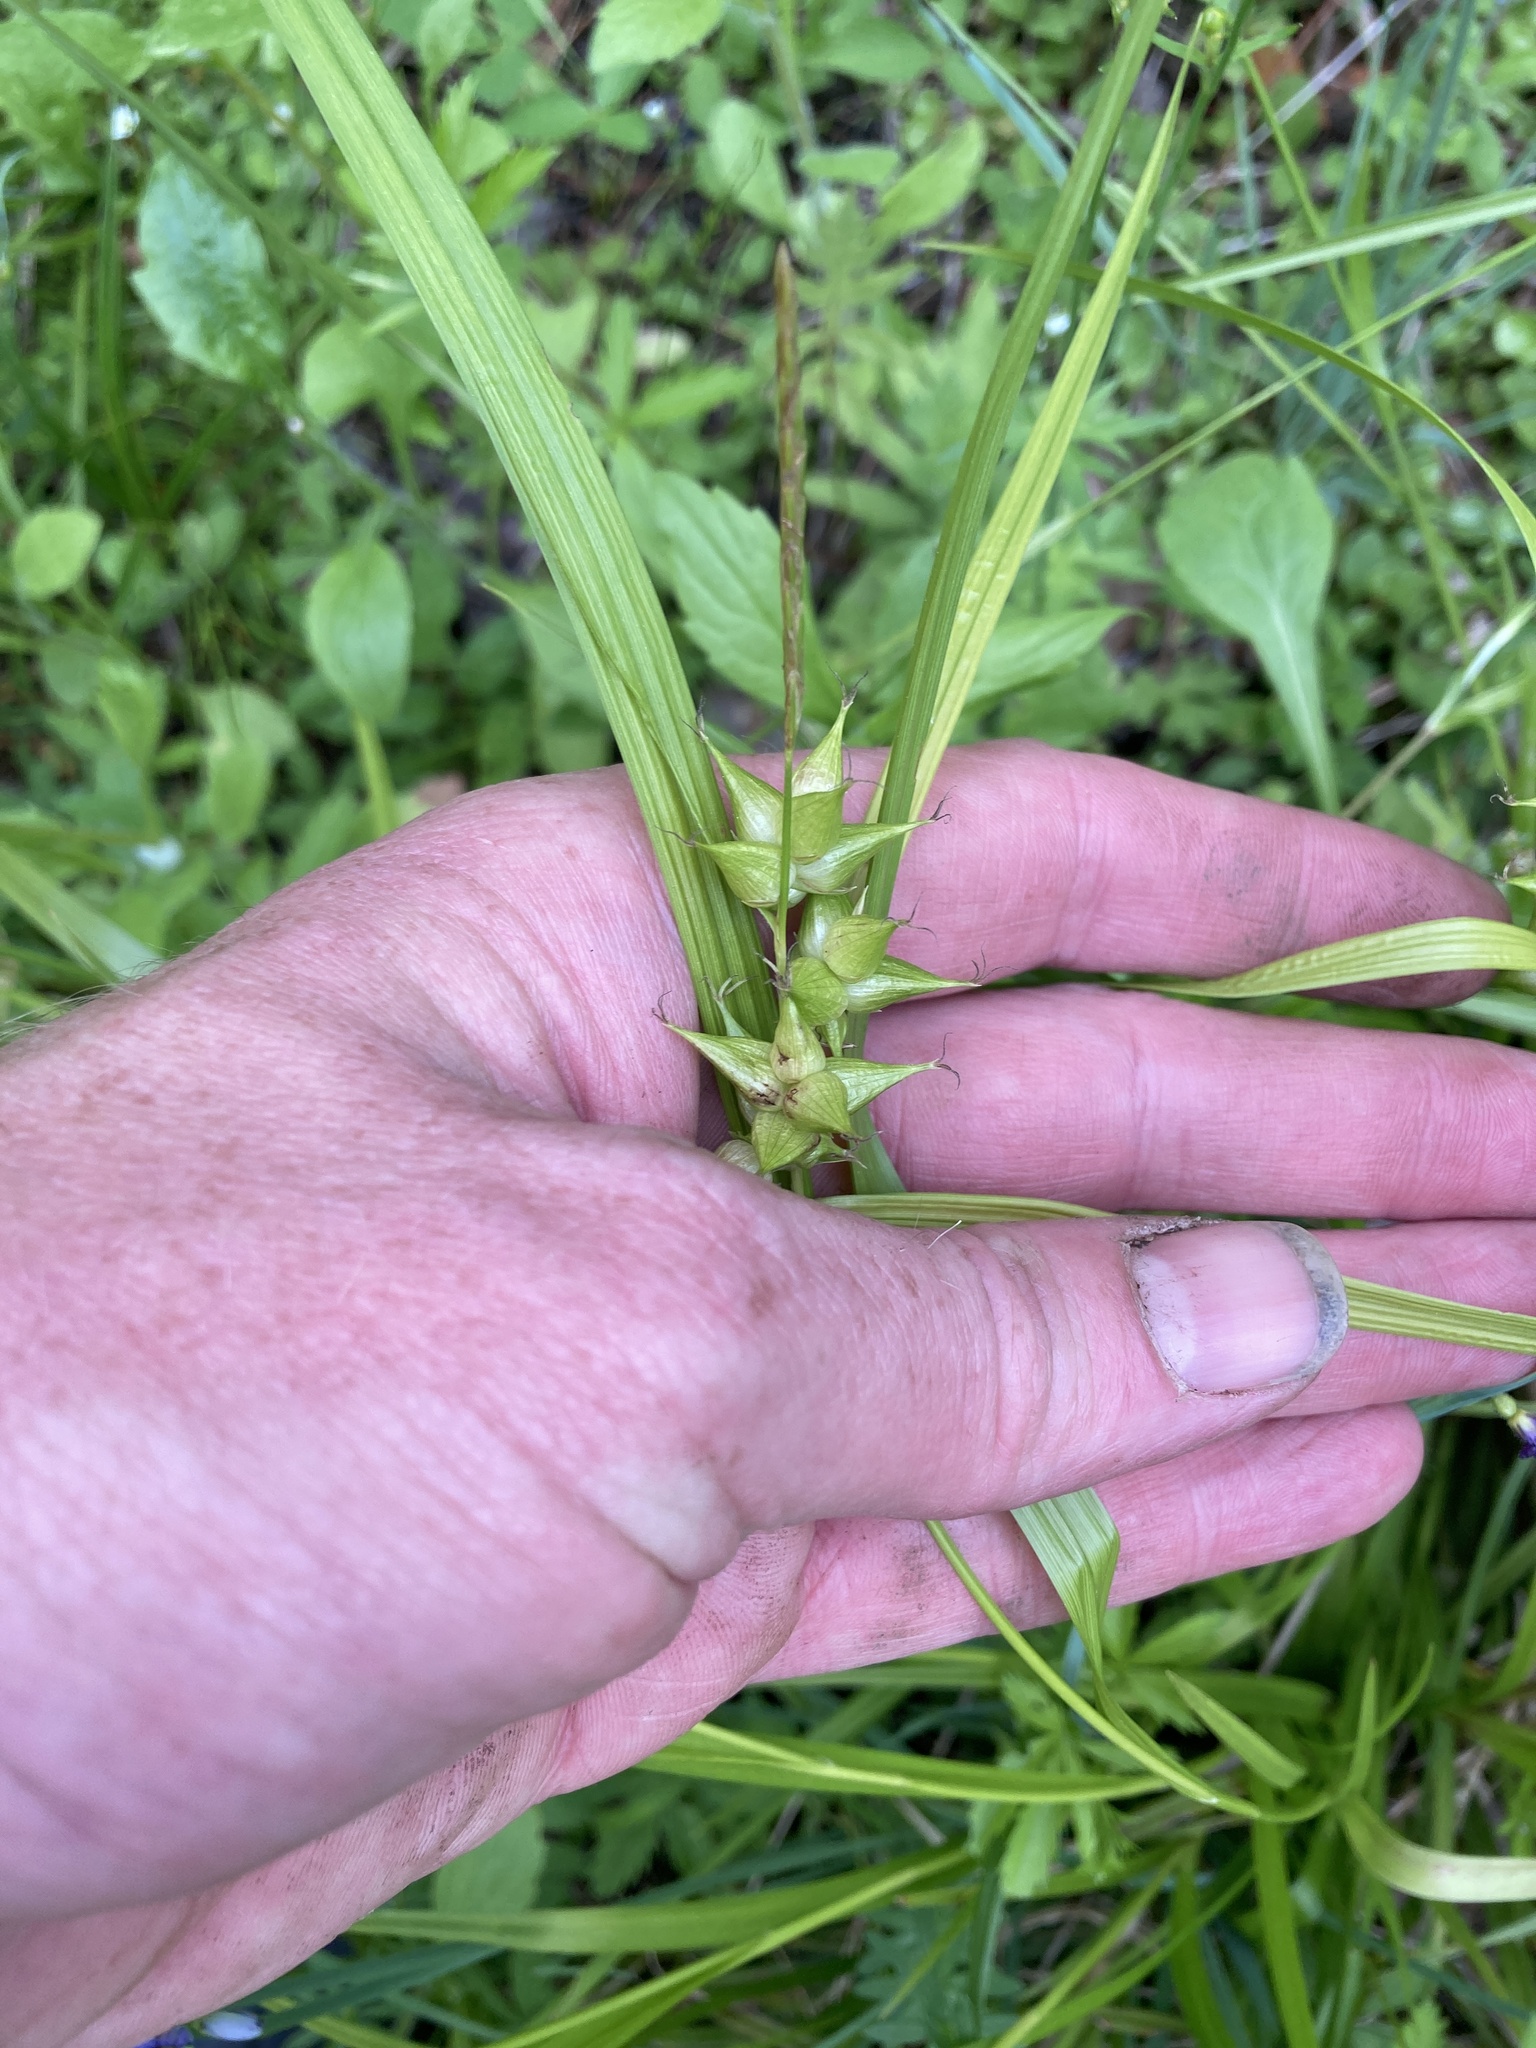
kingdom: Plantae
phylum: Tracheophyta
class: Liliopsida
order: Poales
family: Cyperaceae
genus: Carex
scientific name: Carex intumescens
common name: Greater bladder sedge
